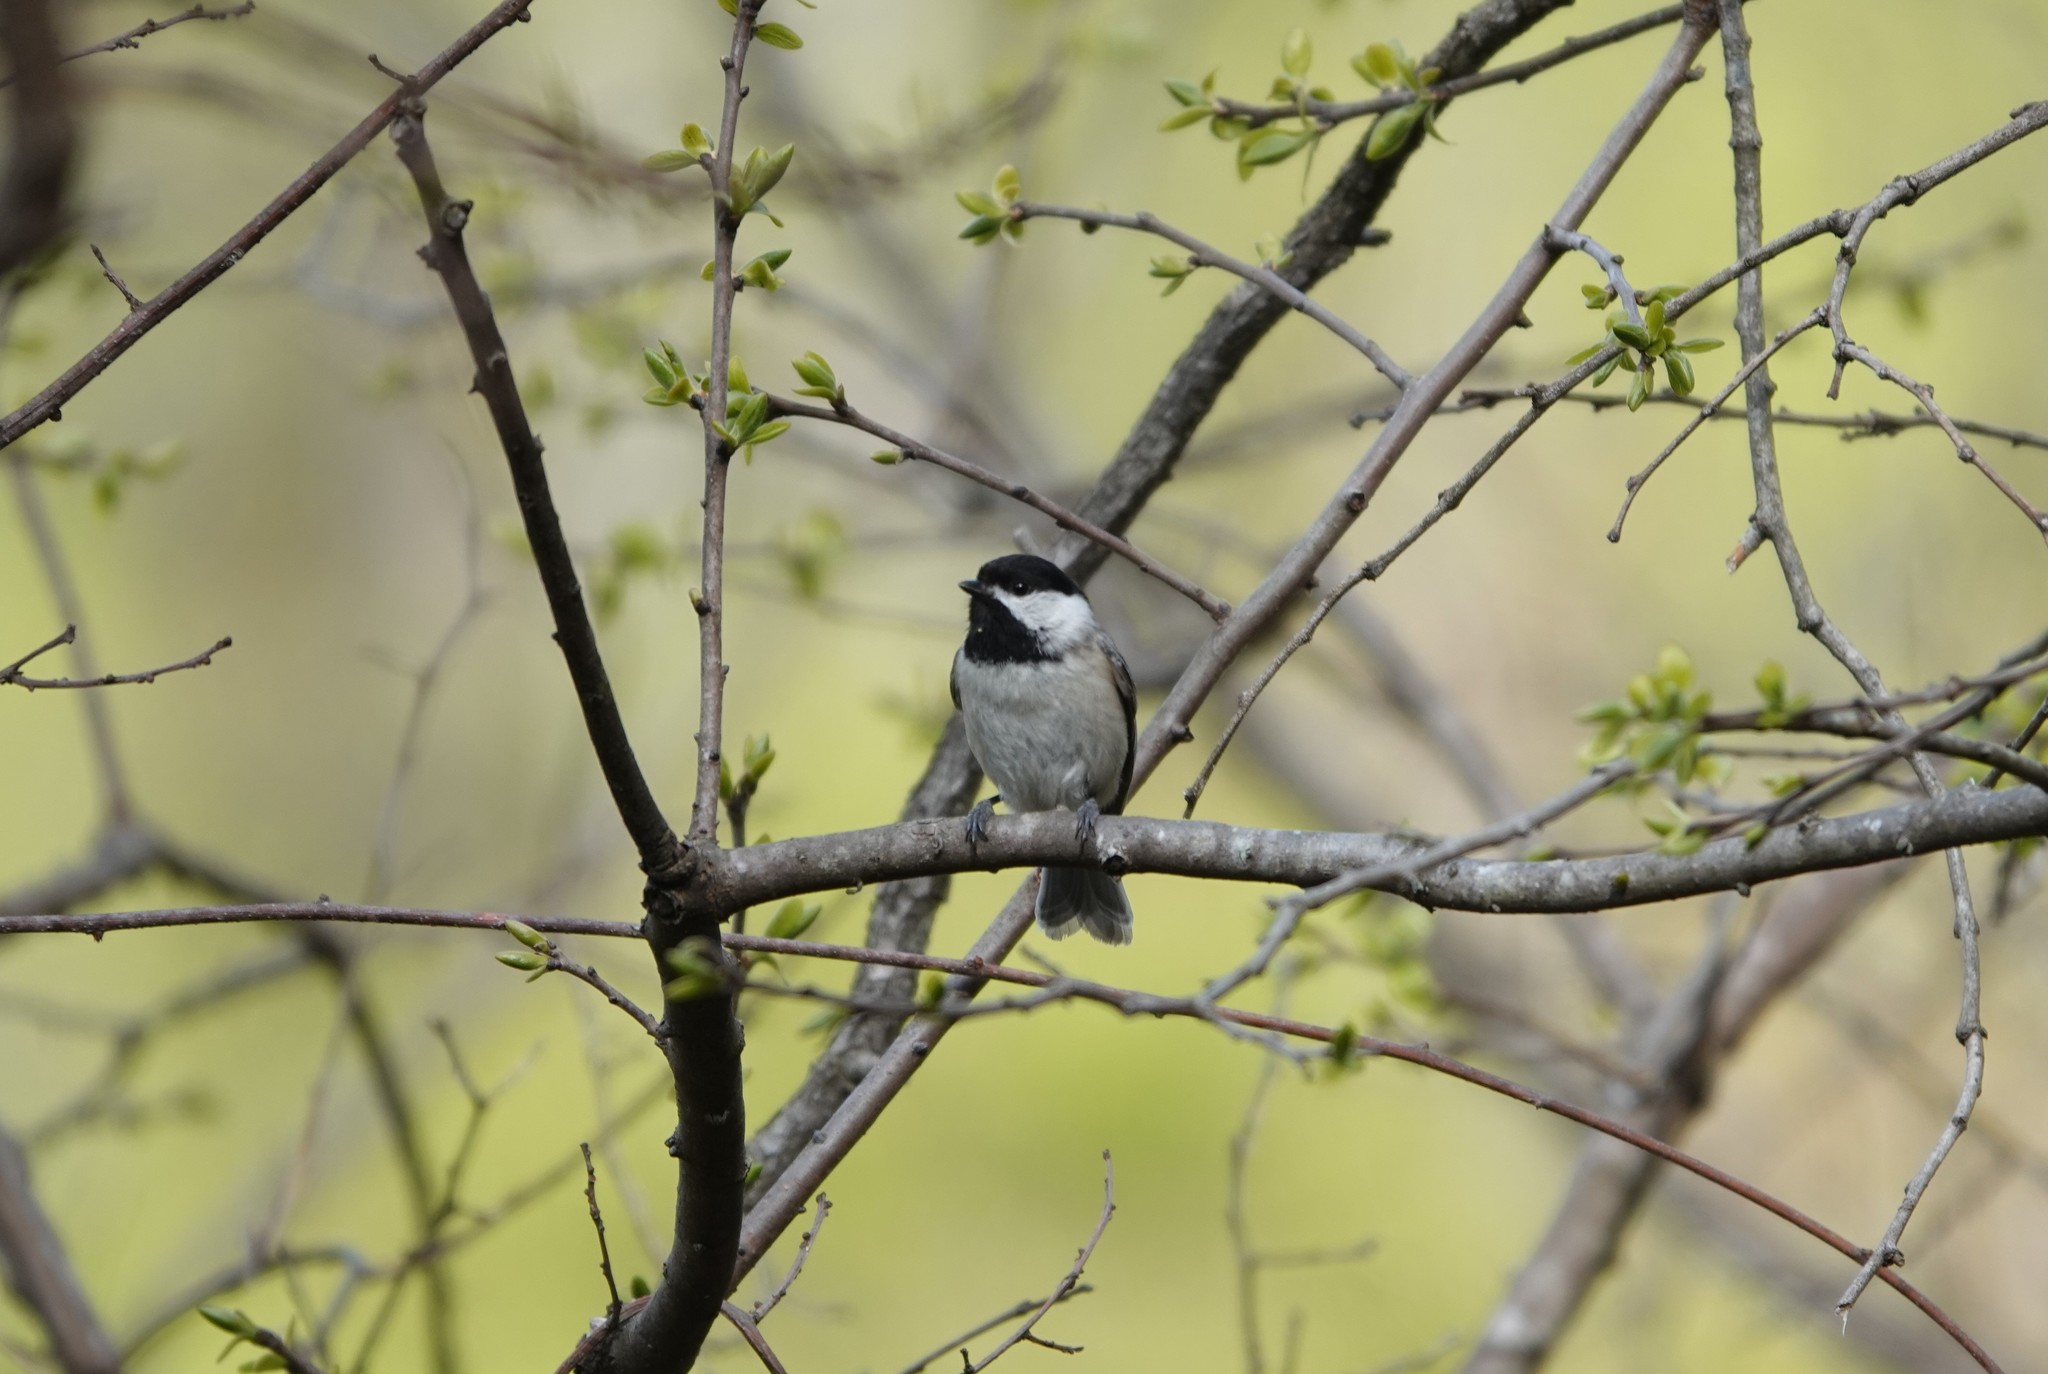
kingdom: Animalia
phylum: Chordata
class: Aves
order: Passeriformes
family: Paridae
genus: Poecile
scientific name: Poecile carolinensis
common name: Carolina chickadee
